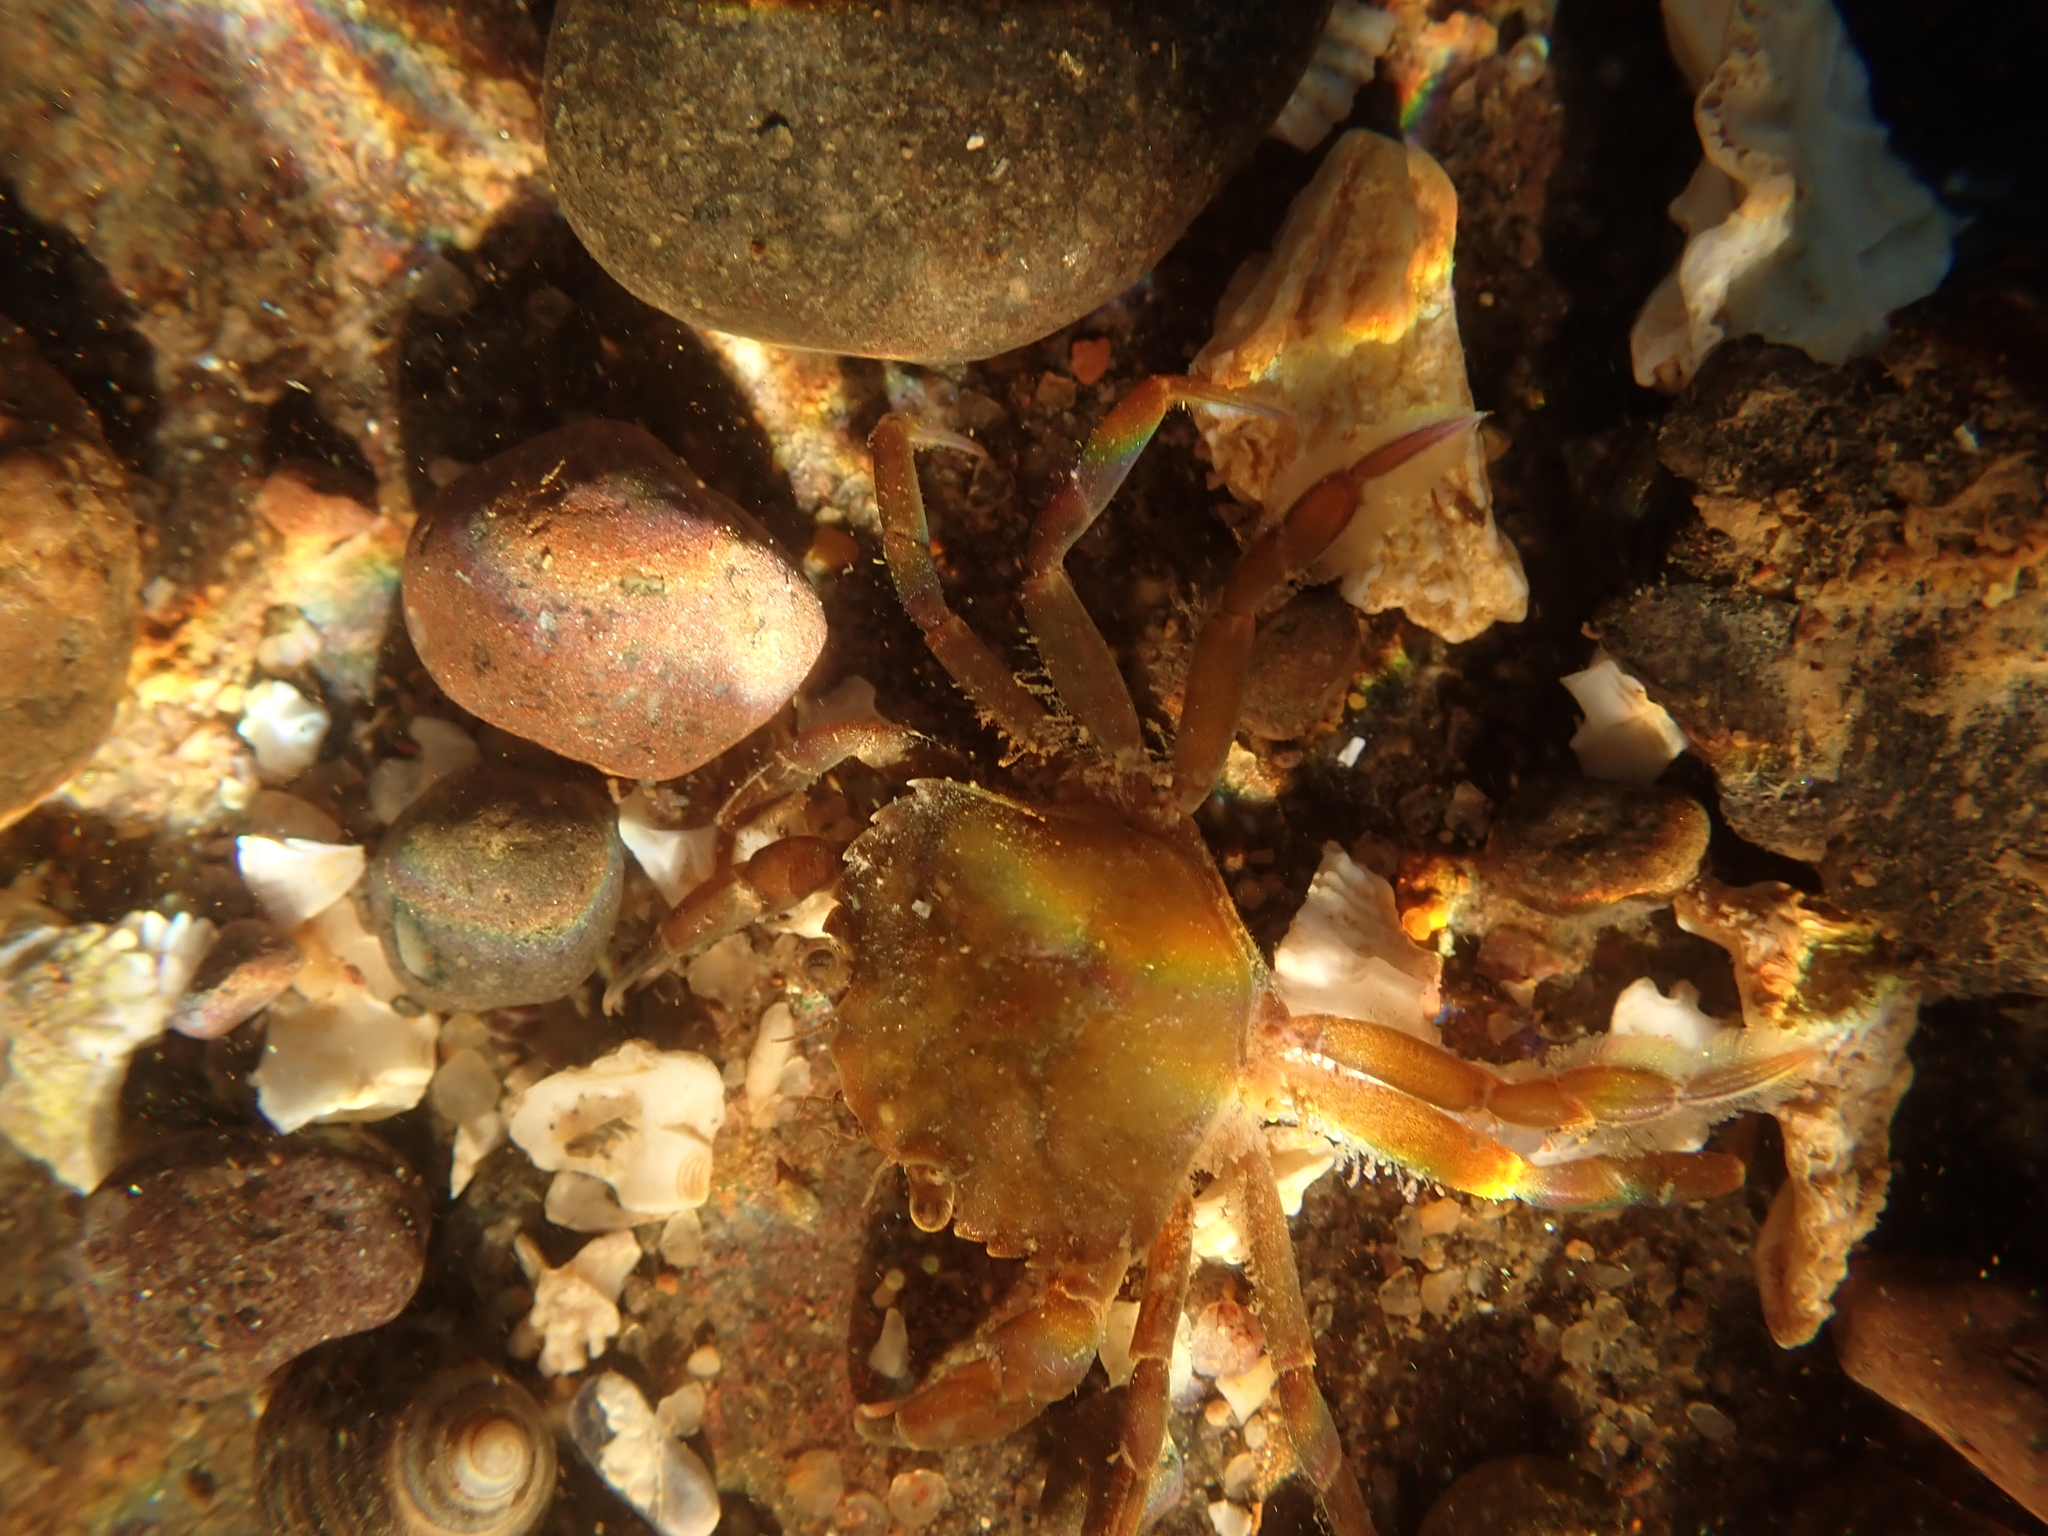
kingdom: Animalia
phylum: Arthropoda
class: Malacostraca
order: Decapoda
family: Carcinidae
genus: Carcinus
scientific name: Carcinus maenas
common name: European green crab
